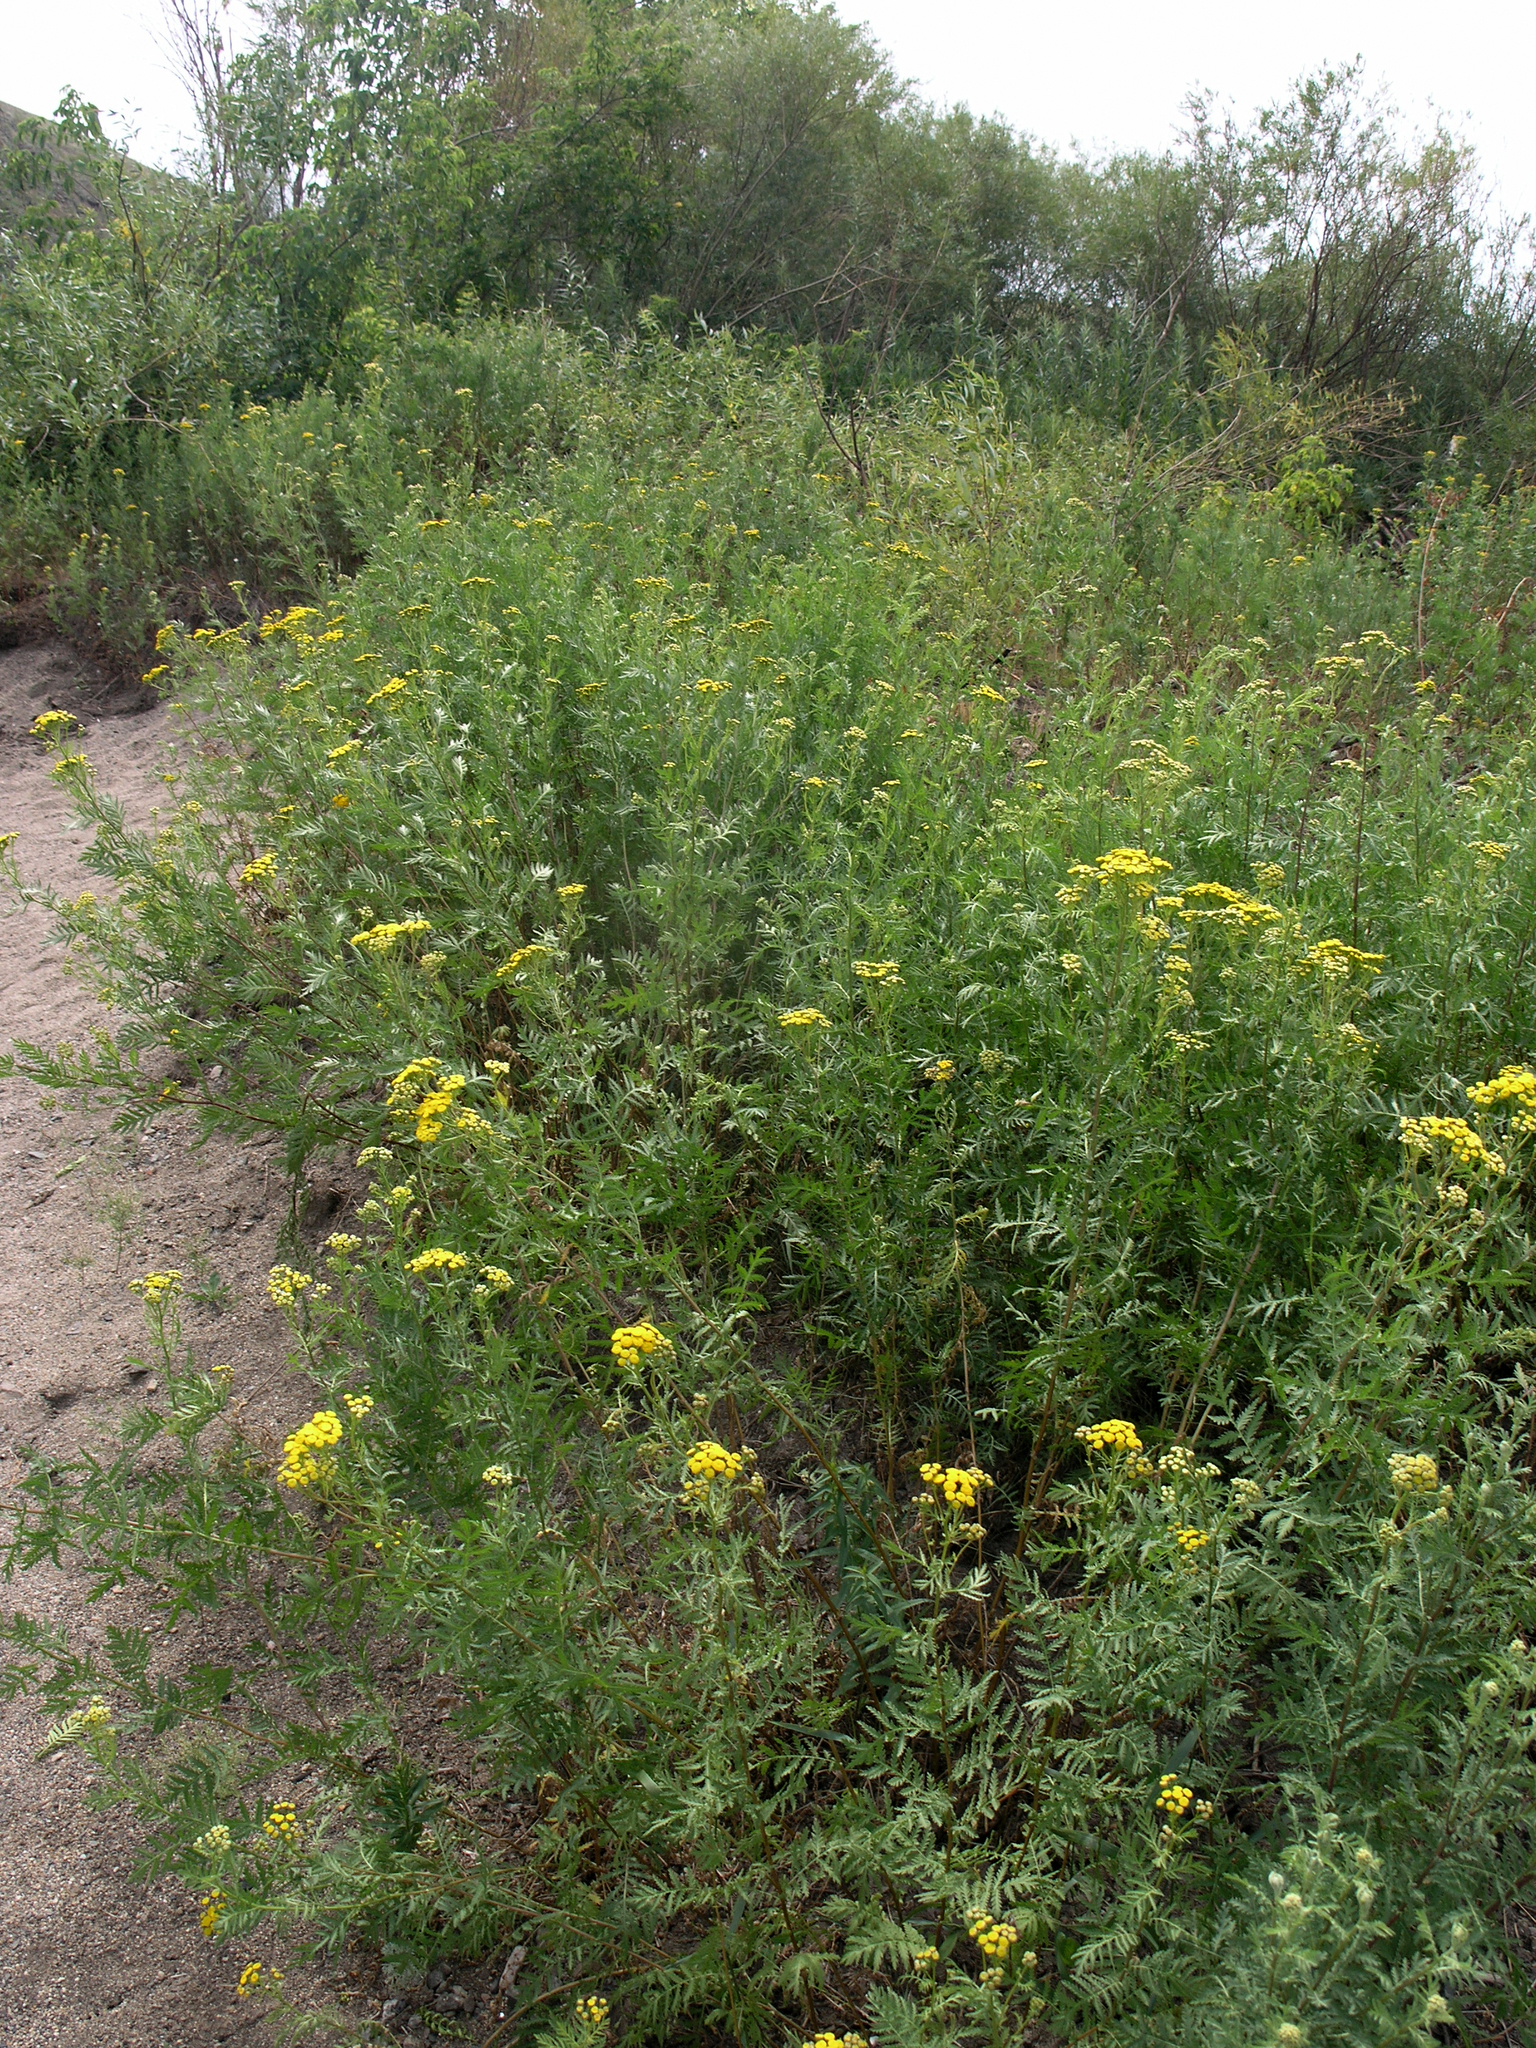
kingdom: Plantae
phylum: Tracheophyta
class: Magnoliopsida
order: Asterales
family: Asteraceae
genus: Tanacetum
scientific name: Tanacetum vulgare
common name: Common tansy
